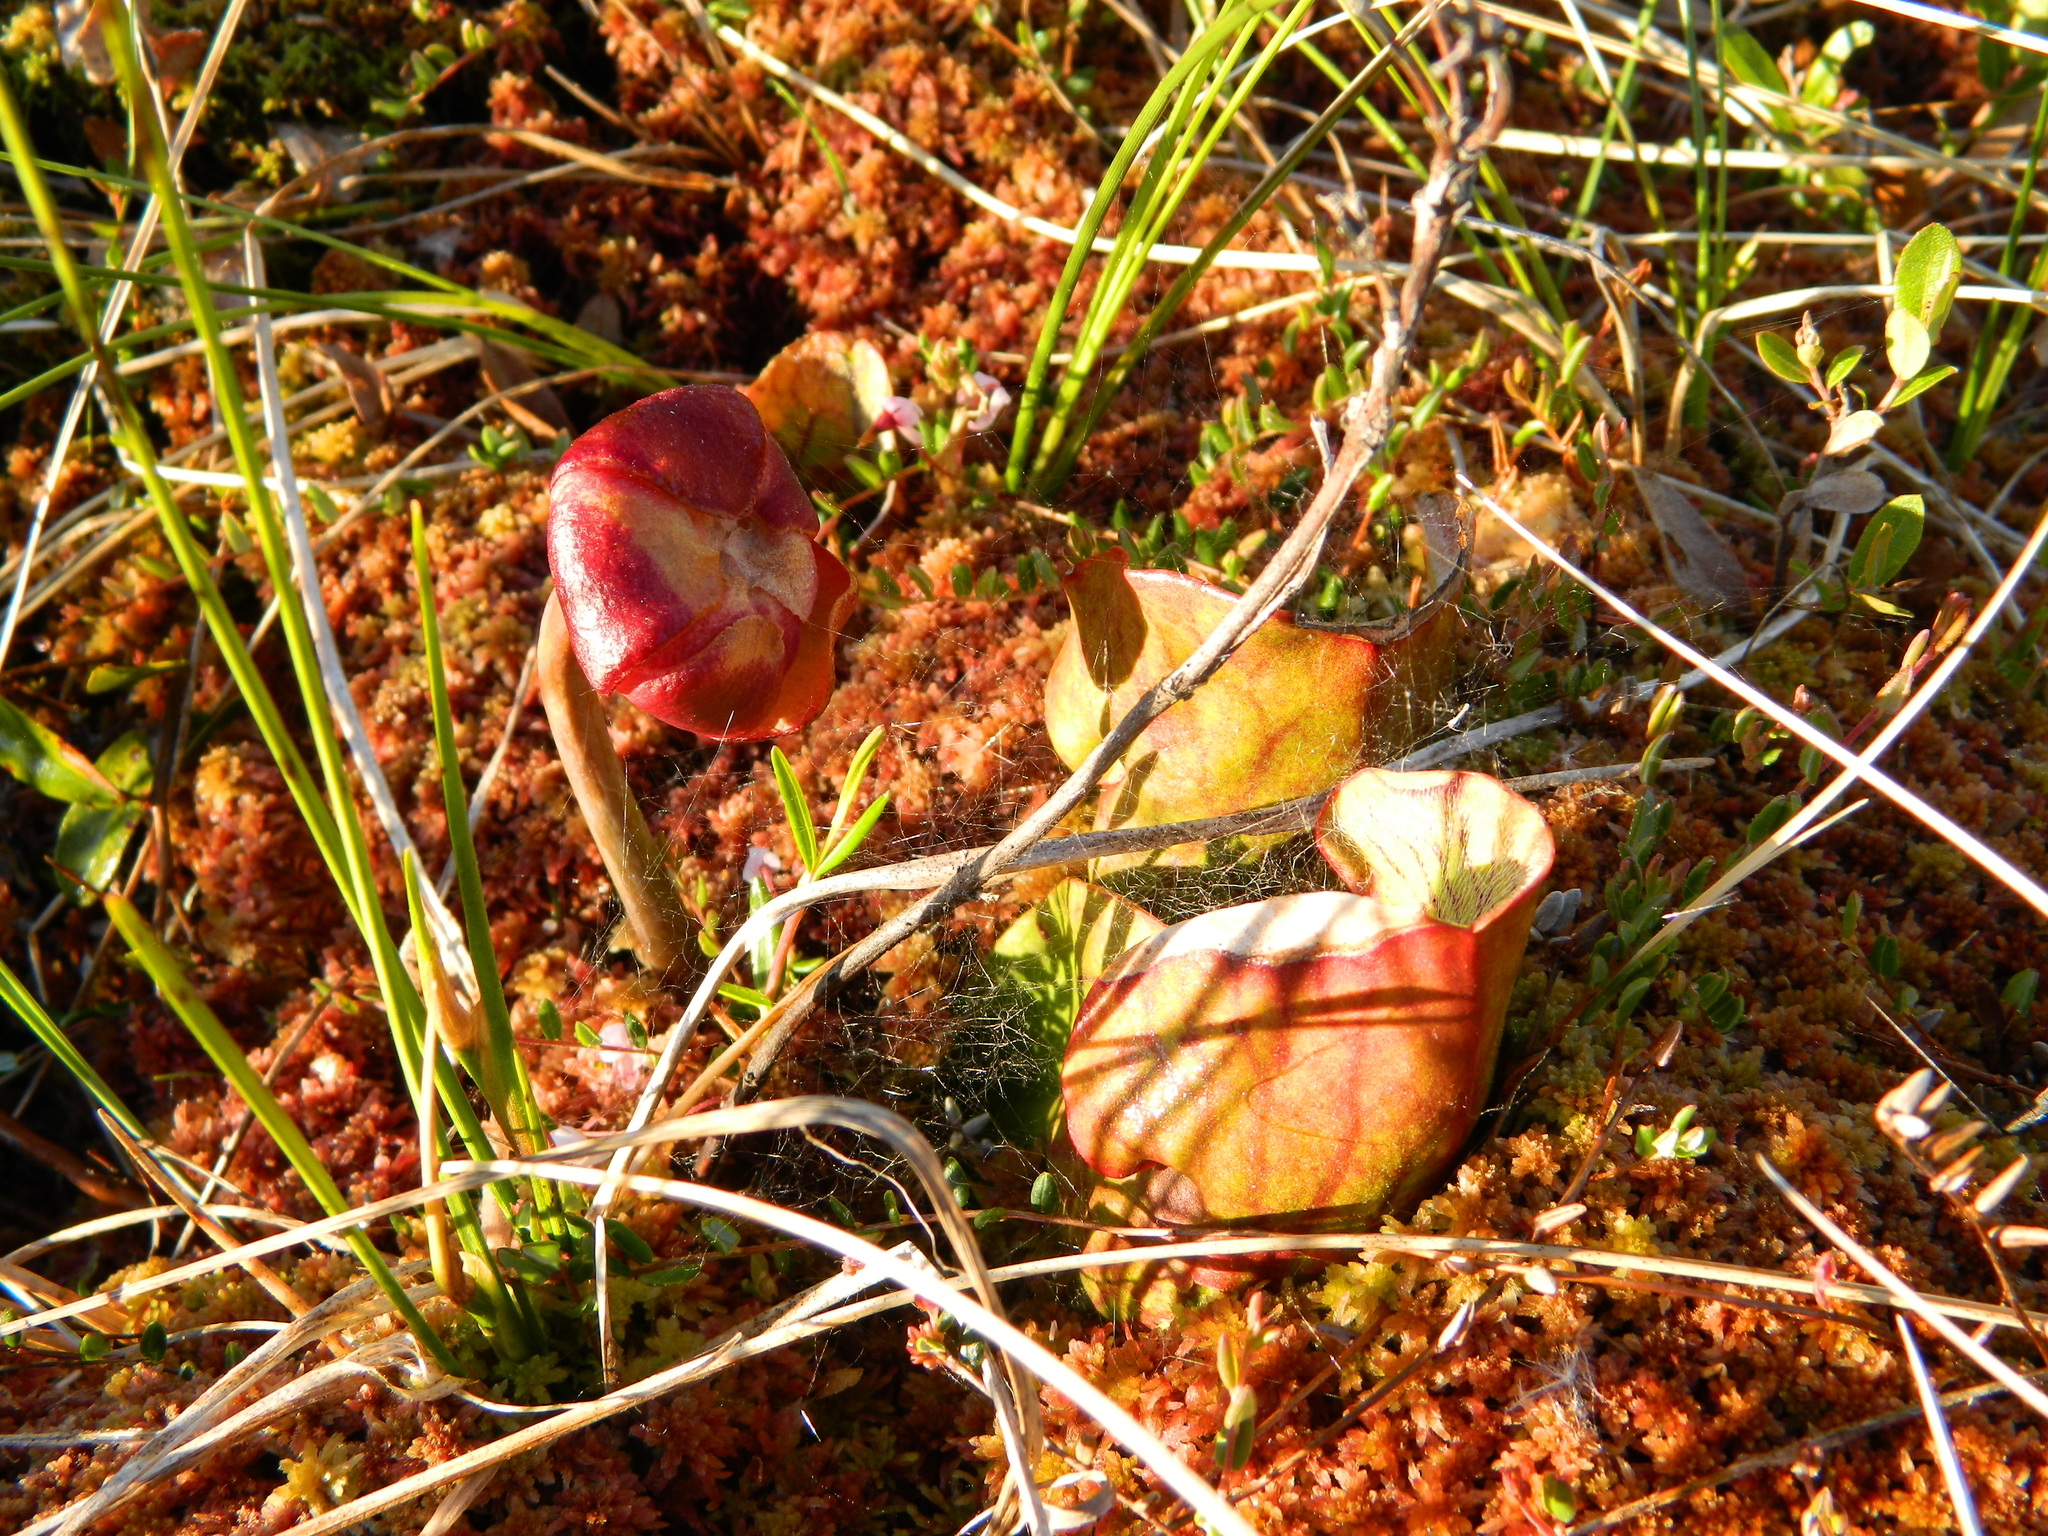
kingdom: Plantae
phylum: Tracheophyta
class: Magnoliopsida
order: Ericales
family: Sarraceniaceae
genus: Sarracenia
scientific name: Sarracenia purpurea
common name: Pitcherplant
